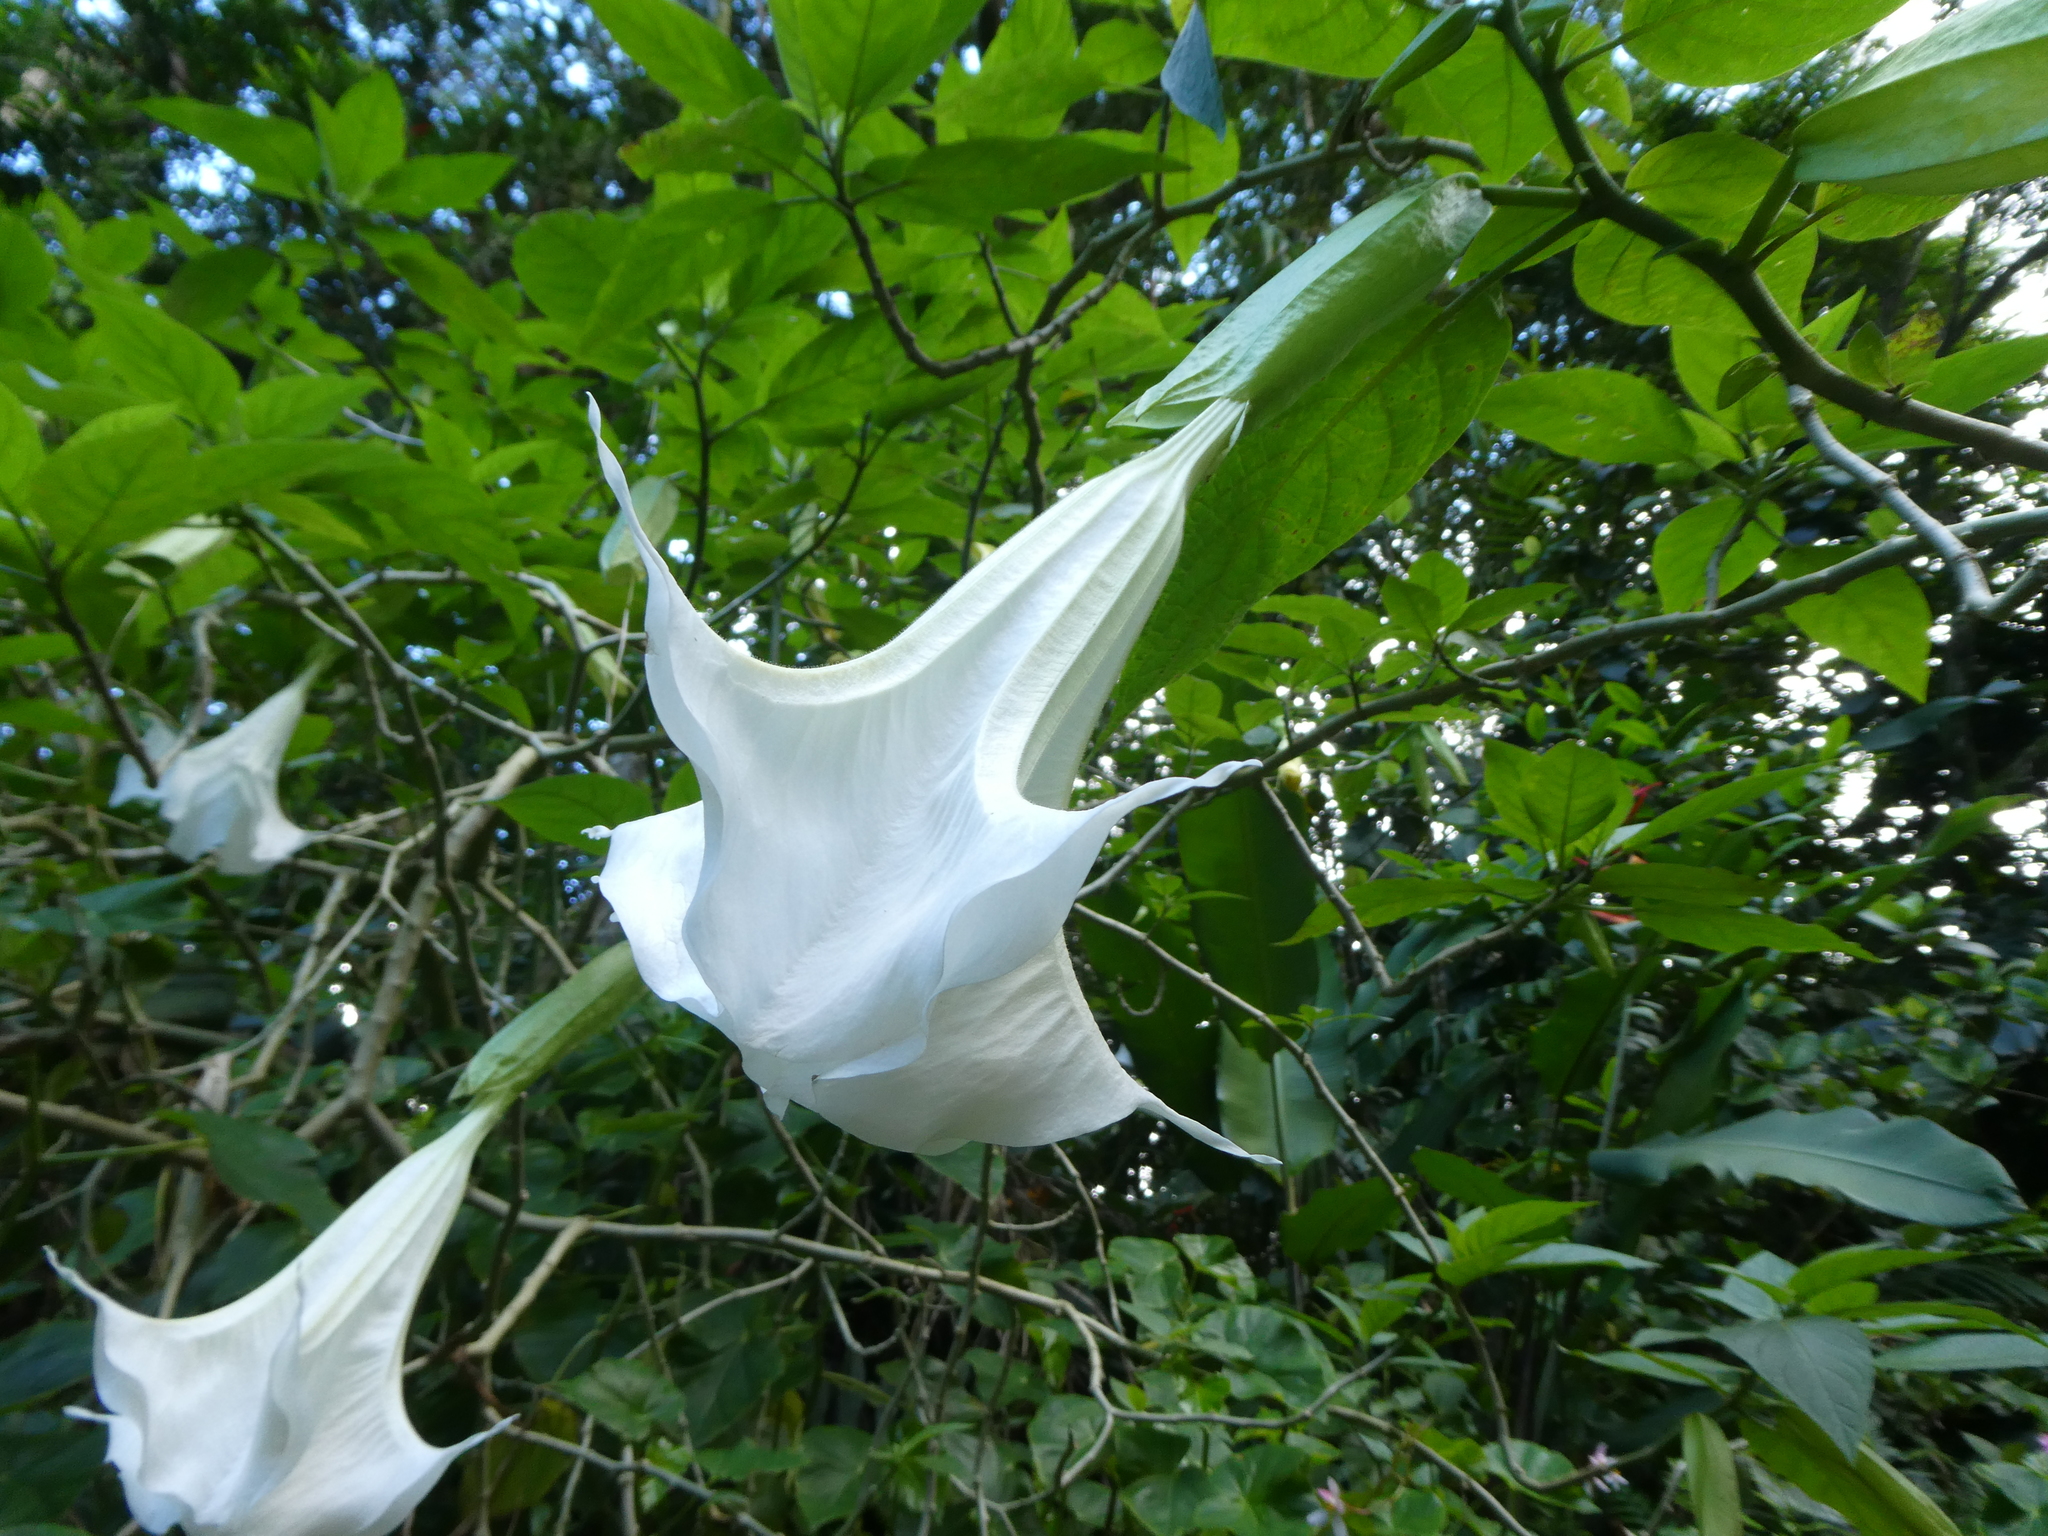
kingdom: Plantae
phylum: Tracheophyta
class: Magnoliopsida
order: Solanales
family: Solanaceae
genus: Brugmansia
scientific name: Brugmansia suaveolens
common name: Angel's tears
